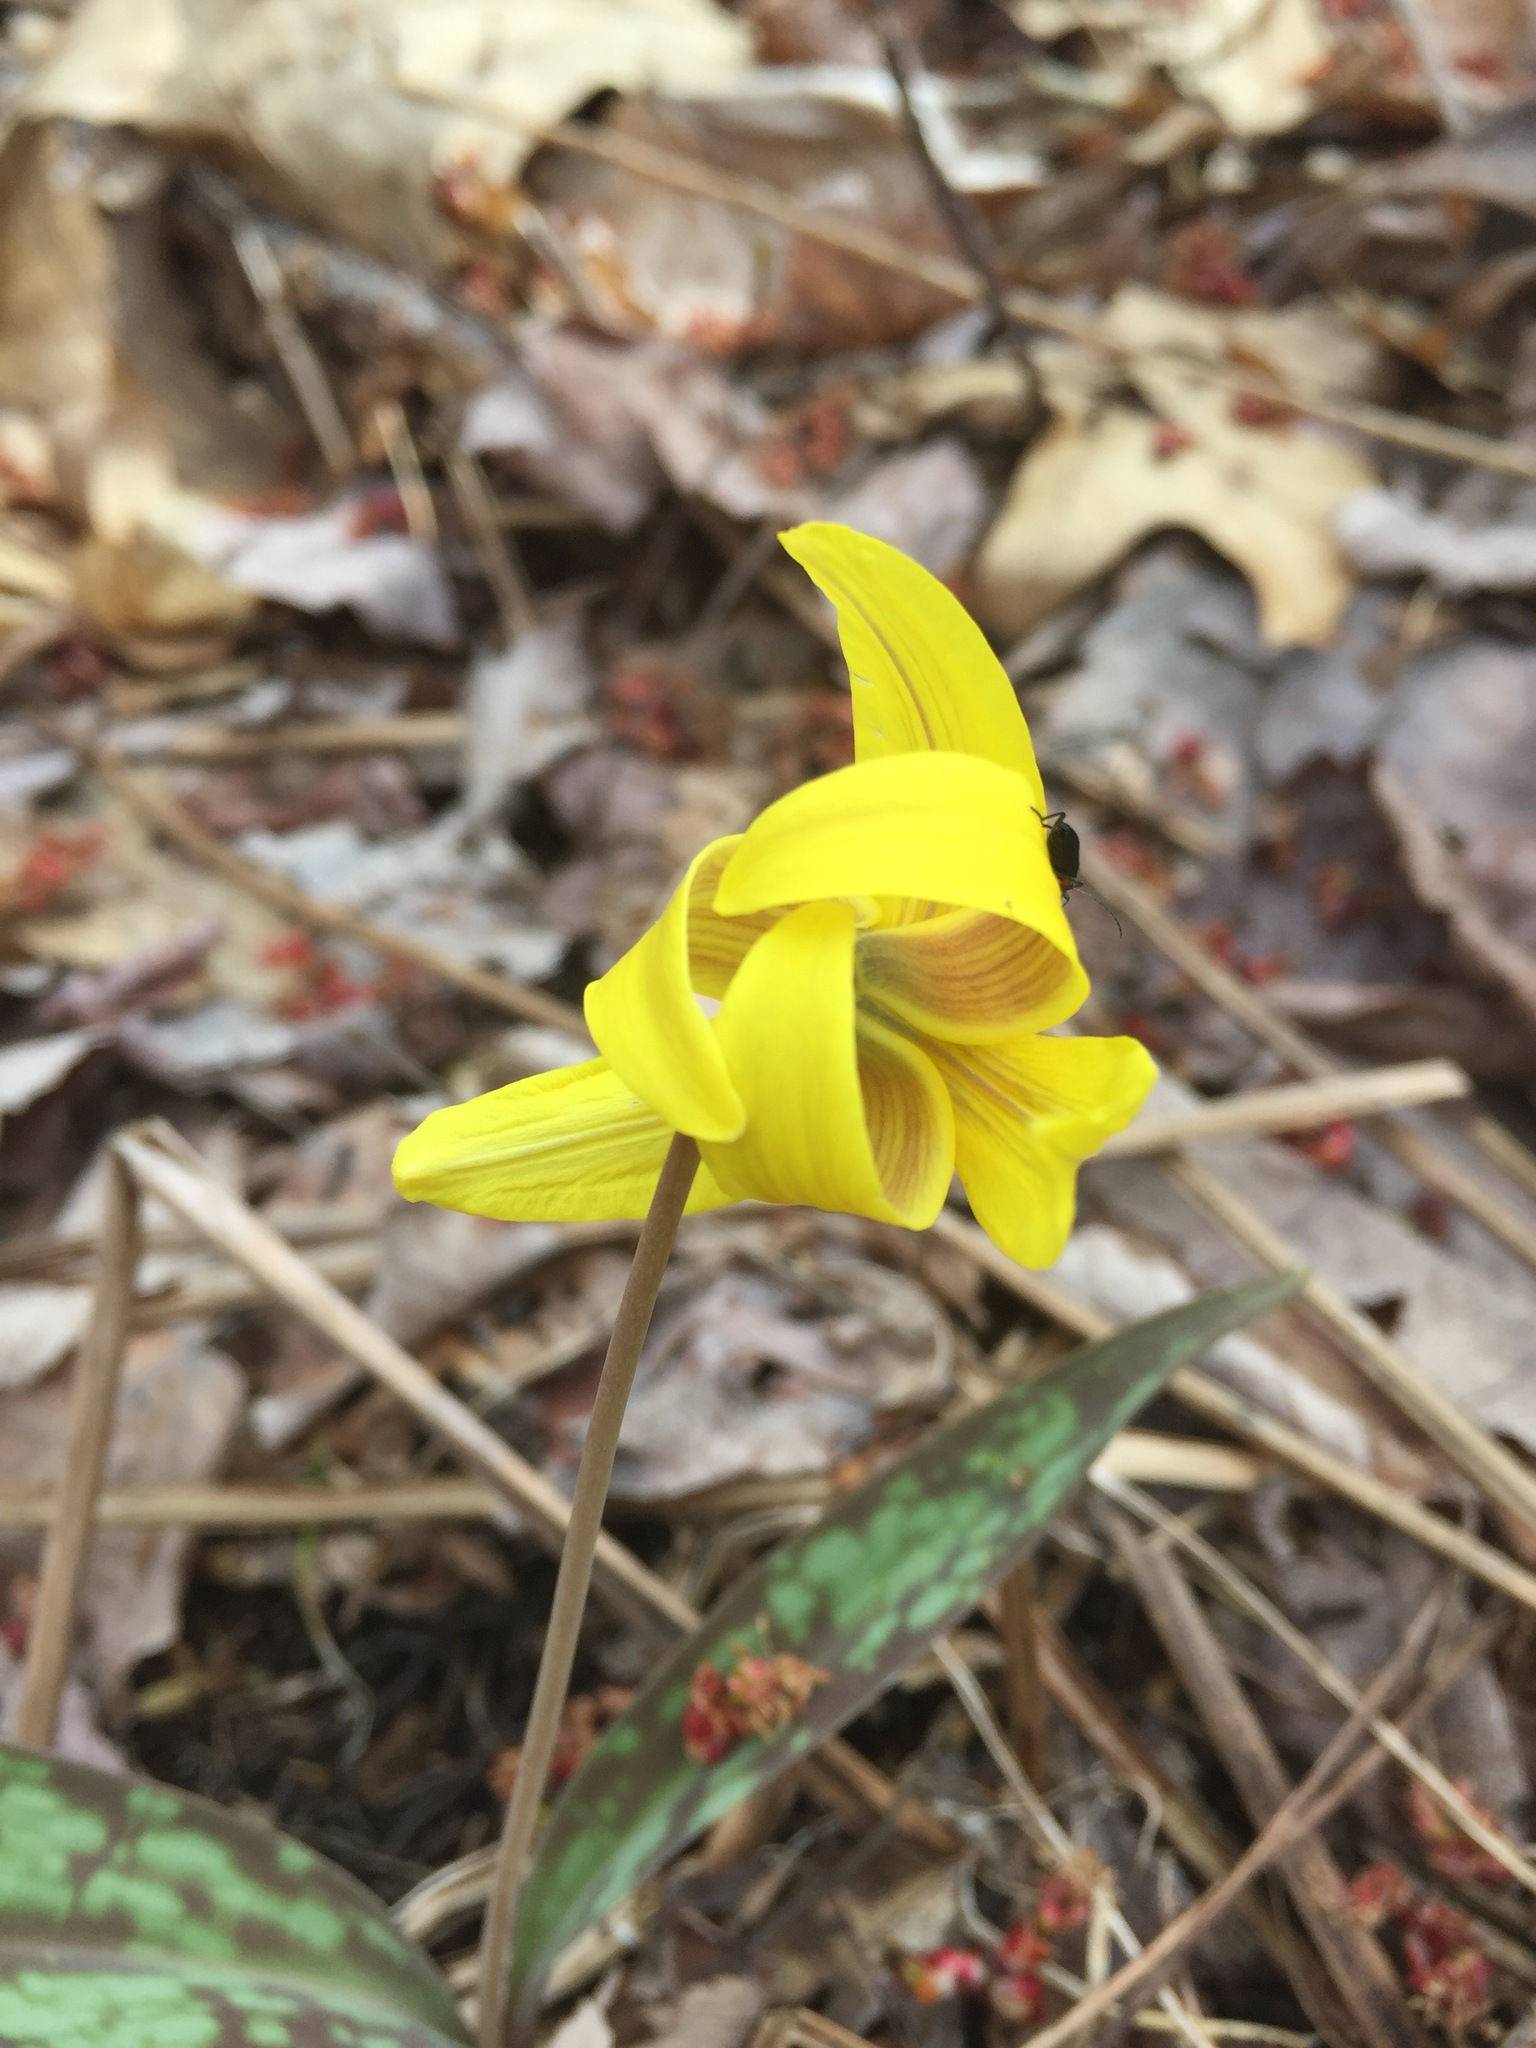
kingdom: Plantae
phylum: Tracheophyta
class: Liliopsida
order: Liliales
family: Liliaceae
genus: Erythronium
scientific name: Erythronium americanum
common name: Yellow adder's-tongue
